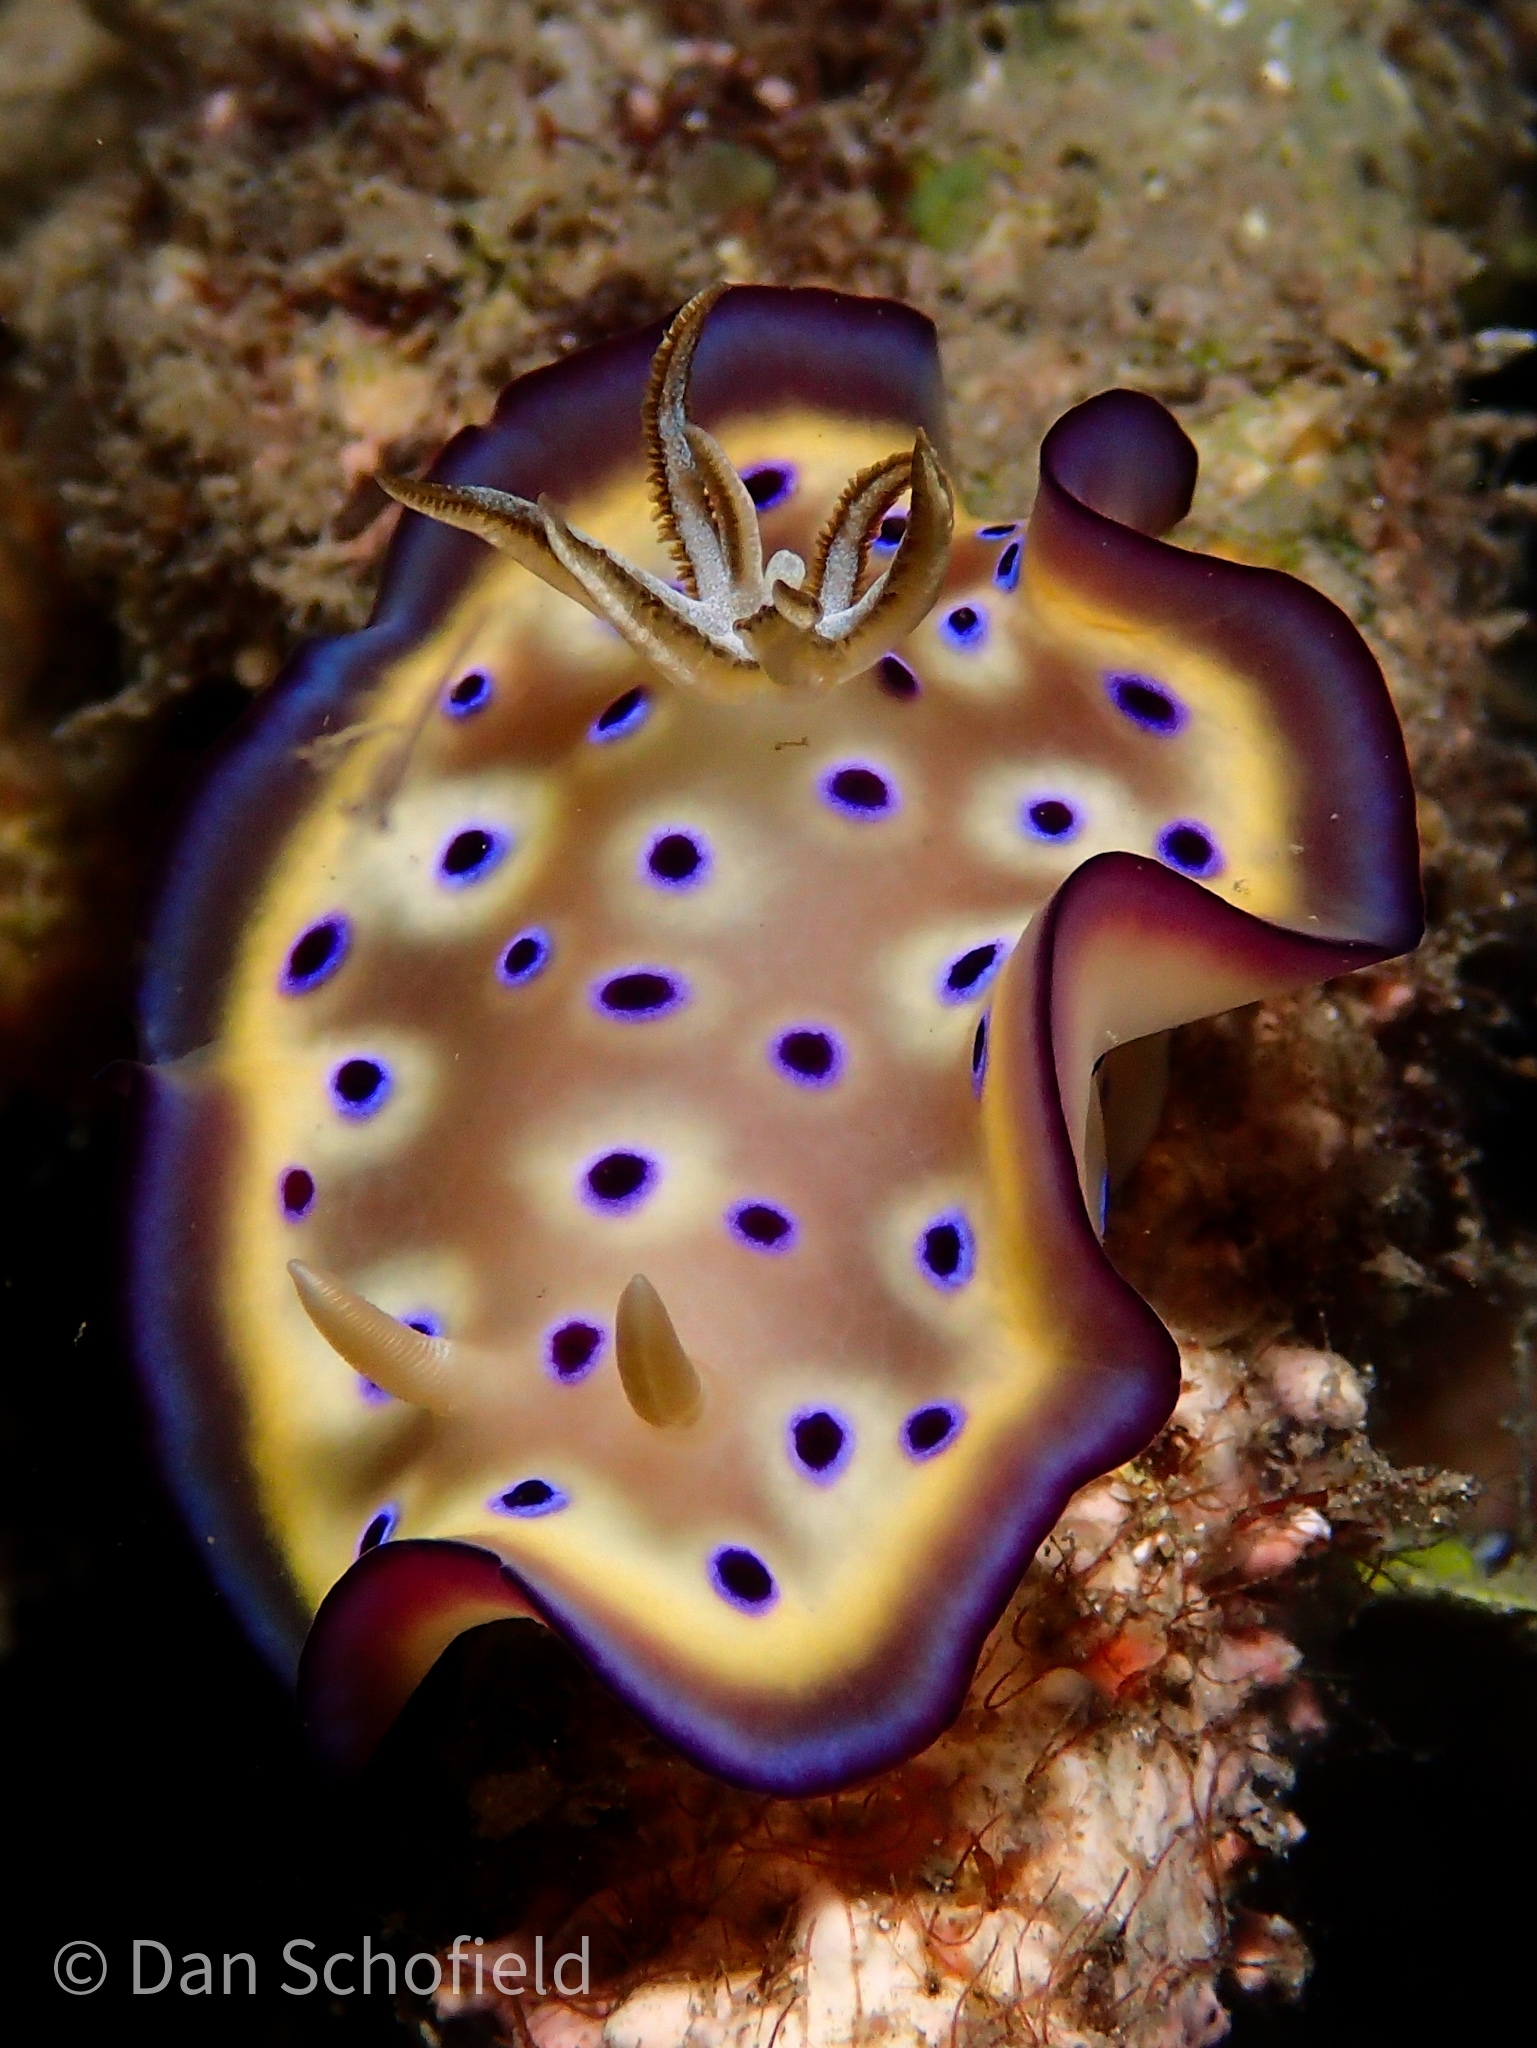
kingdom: Animalia
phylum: Mollusca
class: Gastropoda
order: Nudibranchia
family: Chromodorididae
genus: Goniobranchus
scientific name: Goniobranchus kuniei
